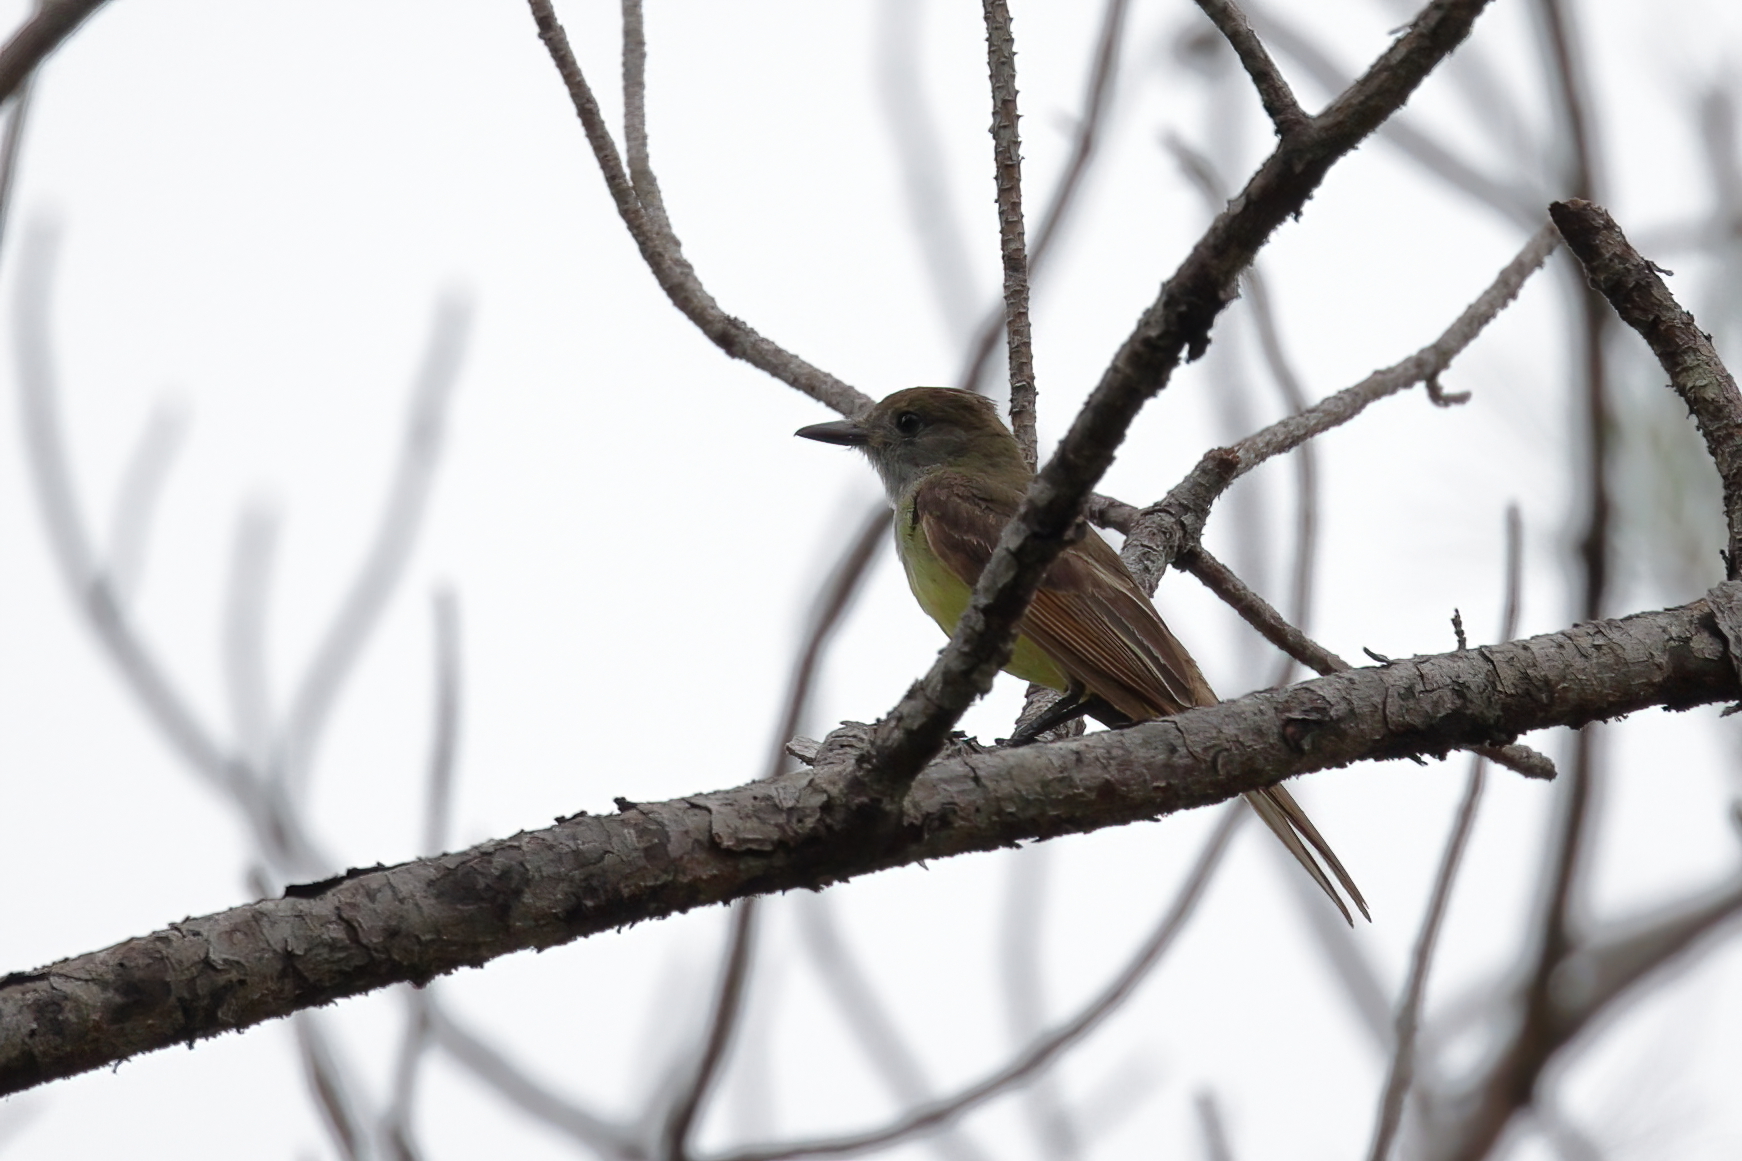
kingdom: Animalia
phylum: Chordata
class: Aves
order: Passeriformes
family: Tyrannidae
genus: Myiarchus
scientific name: Myiarchus crinitus
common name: Great crested flycatcher
